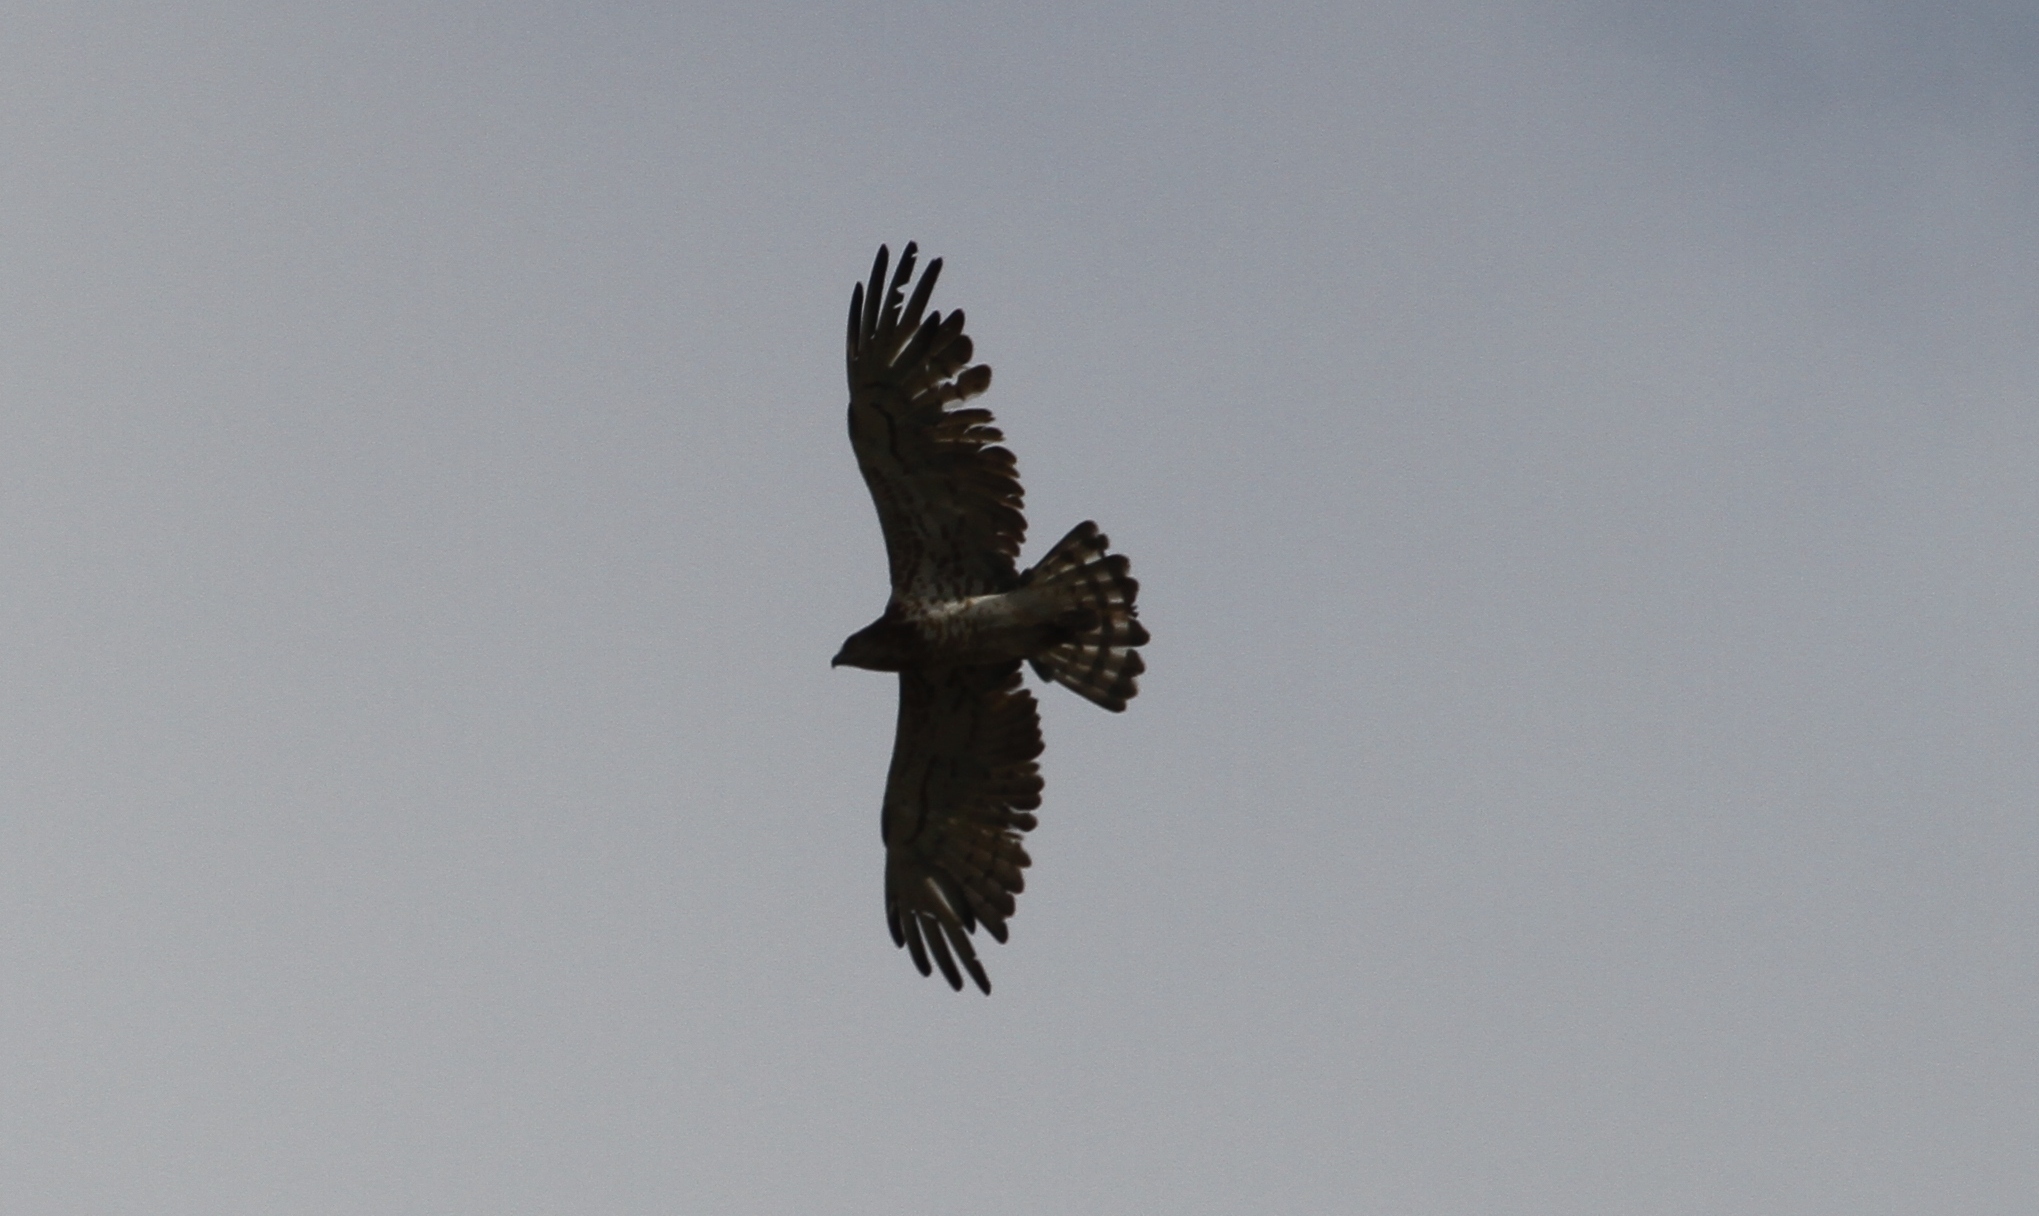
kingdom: Animalia
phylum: Chordata
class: Aves
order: Accipitriformes
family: Accipitridae
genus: Circaetus
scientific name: Circaetus gallicus
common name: Short-toed snake eagle
